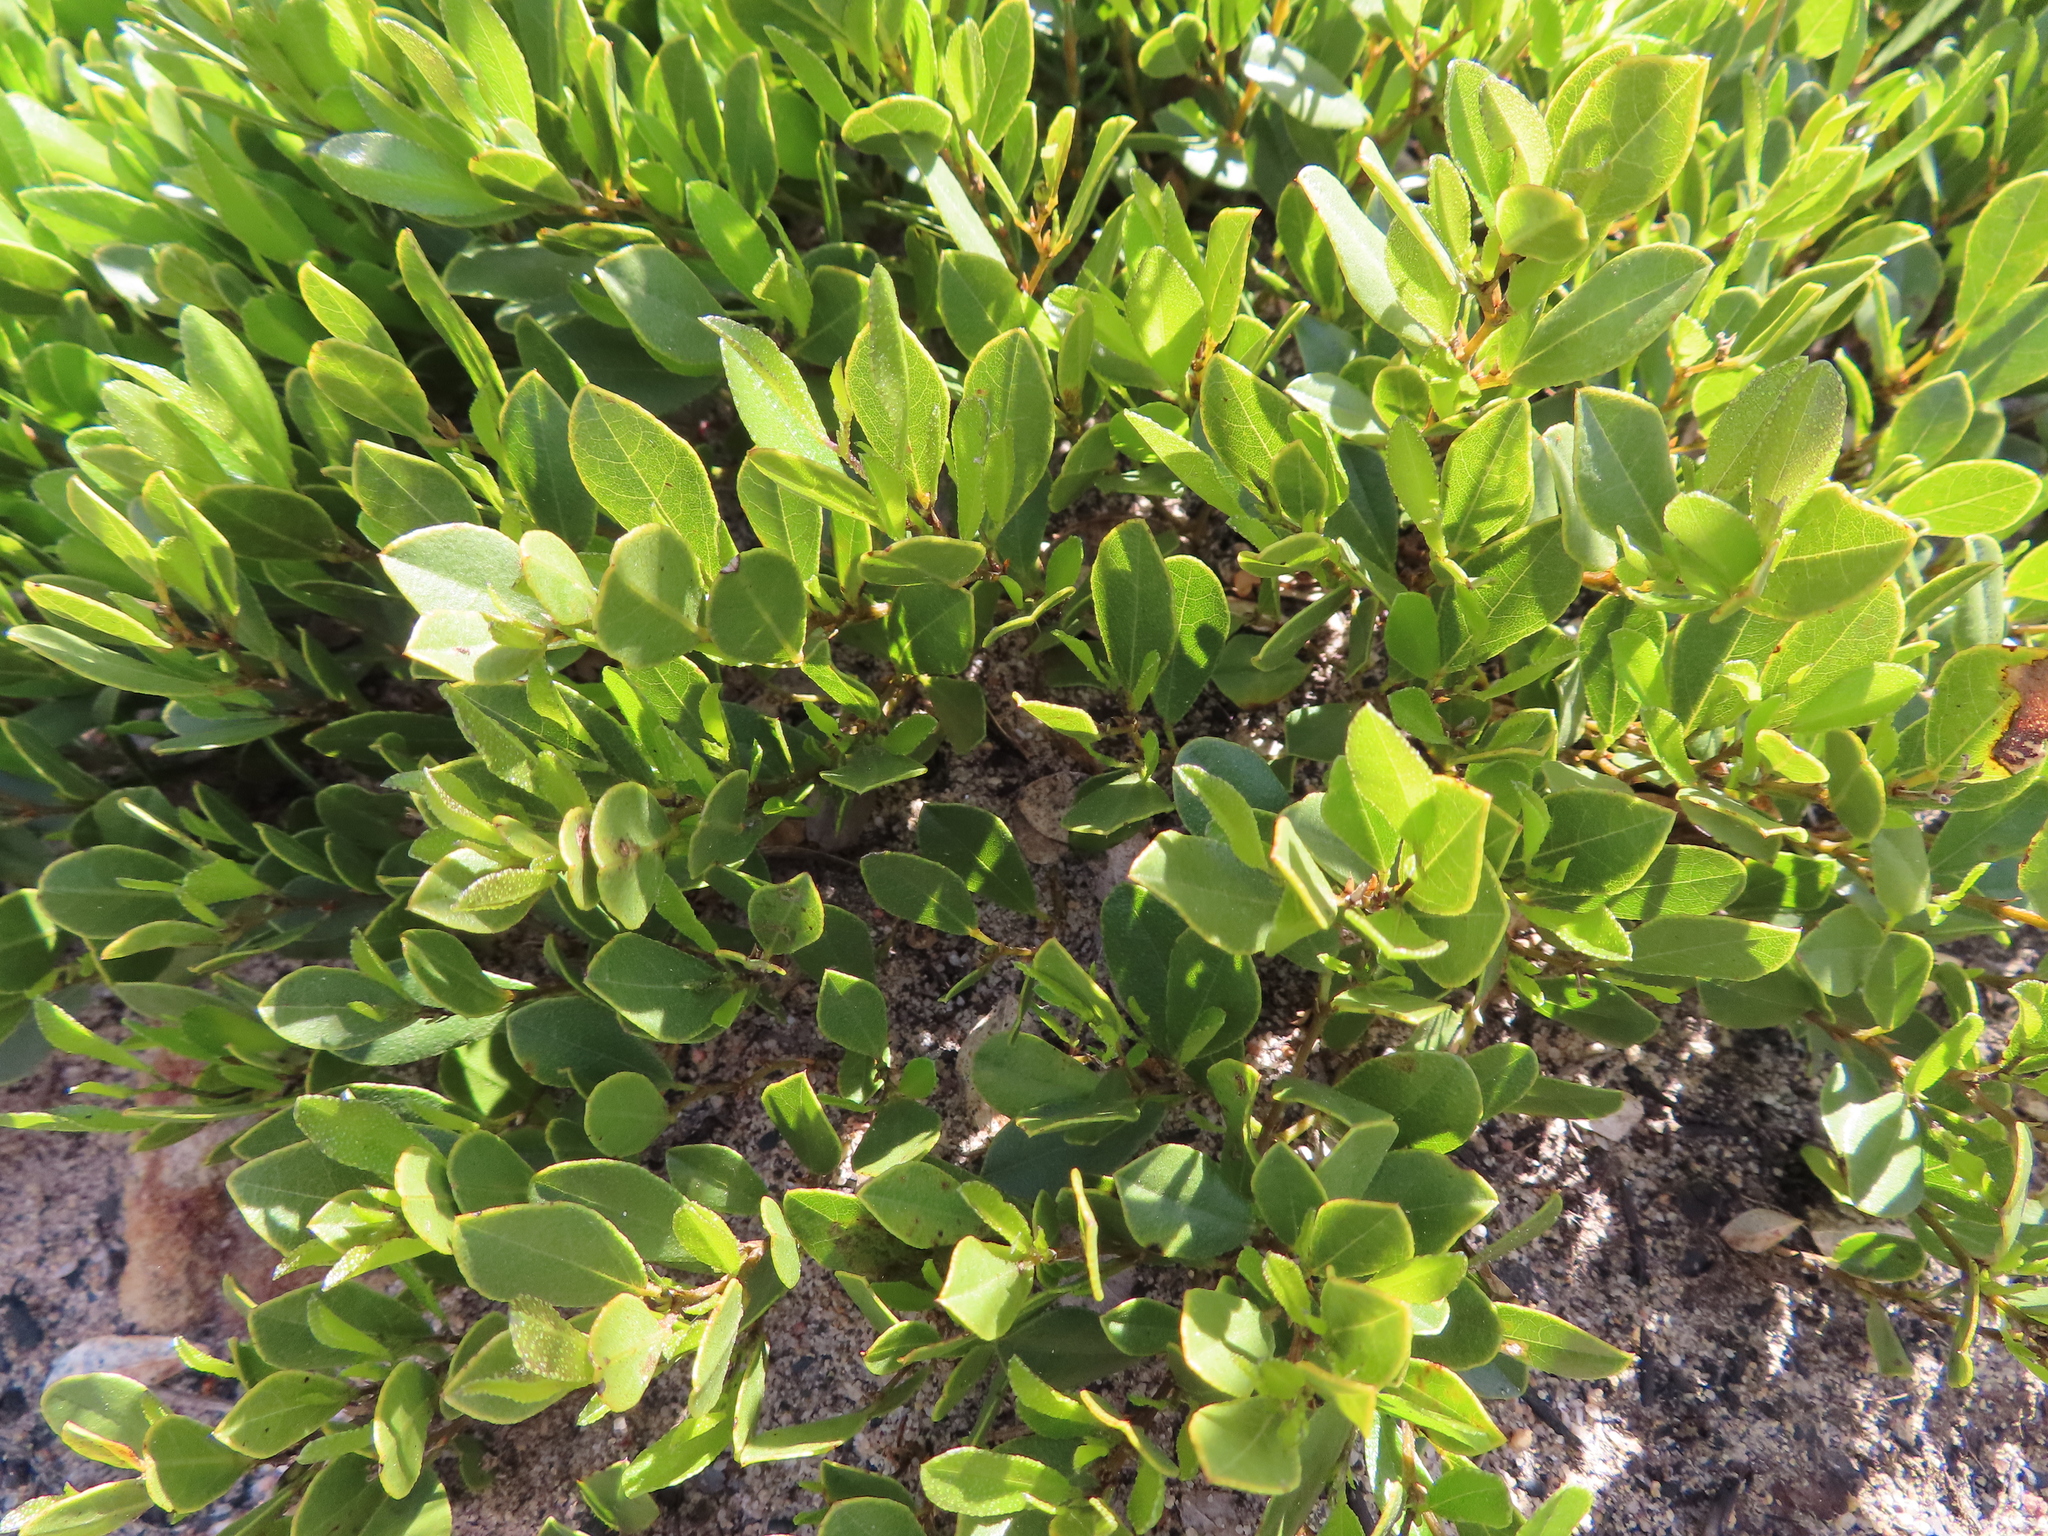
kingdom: Plantae
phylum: Tracheophyta
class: Magnoliopsida
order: Fabales
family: Fabaceae
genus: Psoralea
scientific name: Psoralea rotundifolia
